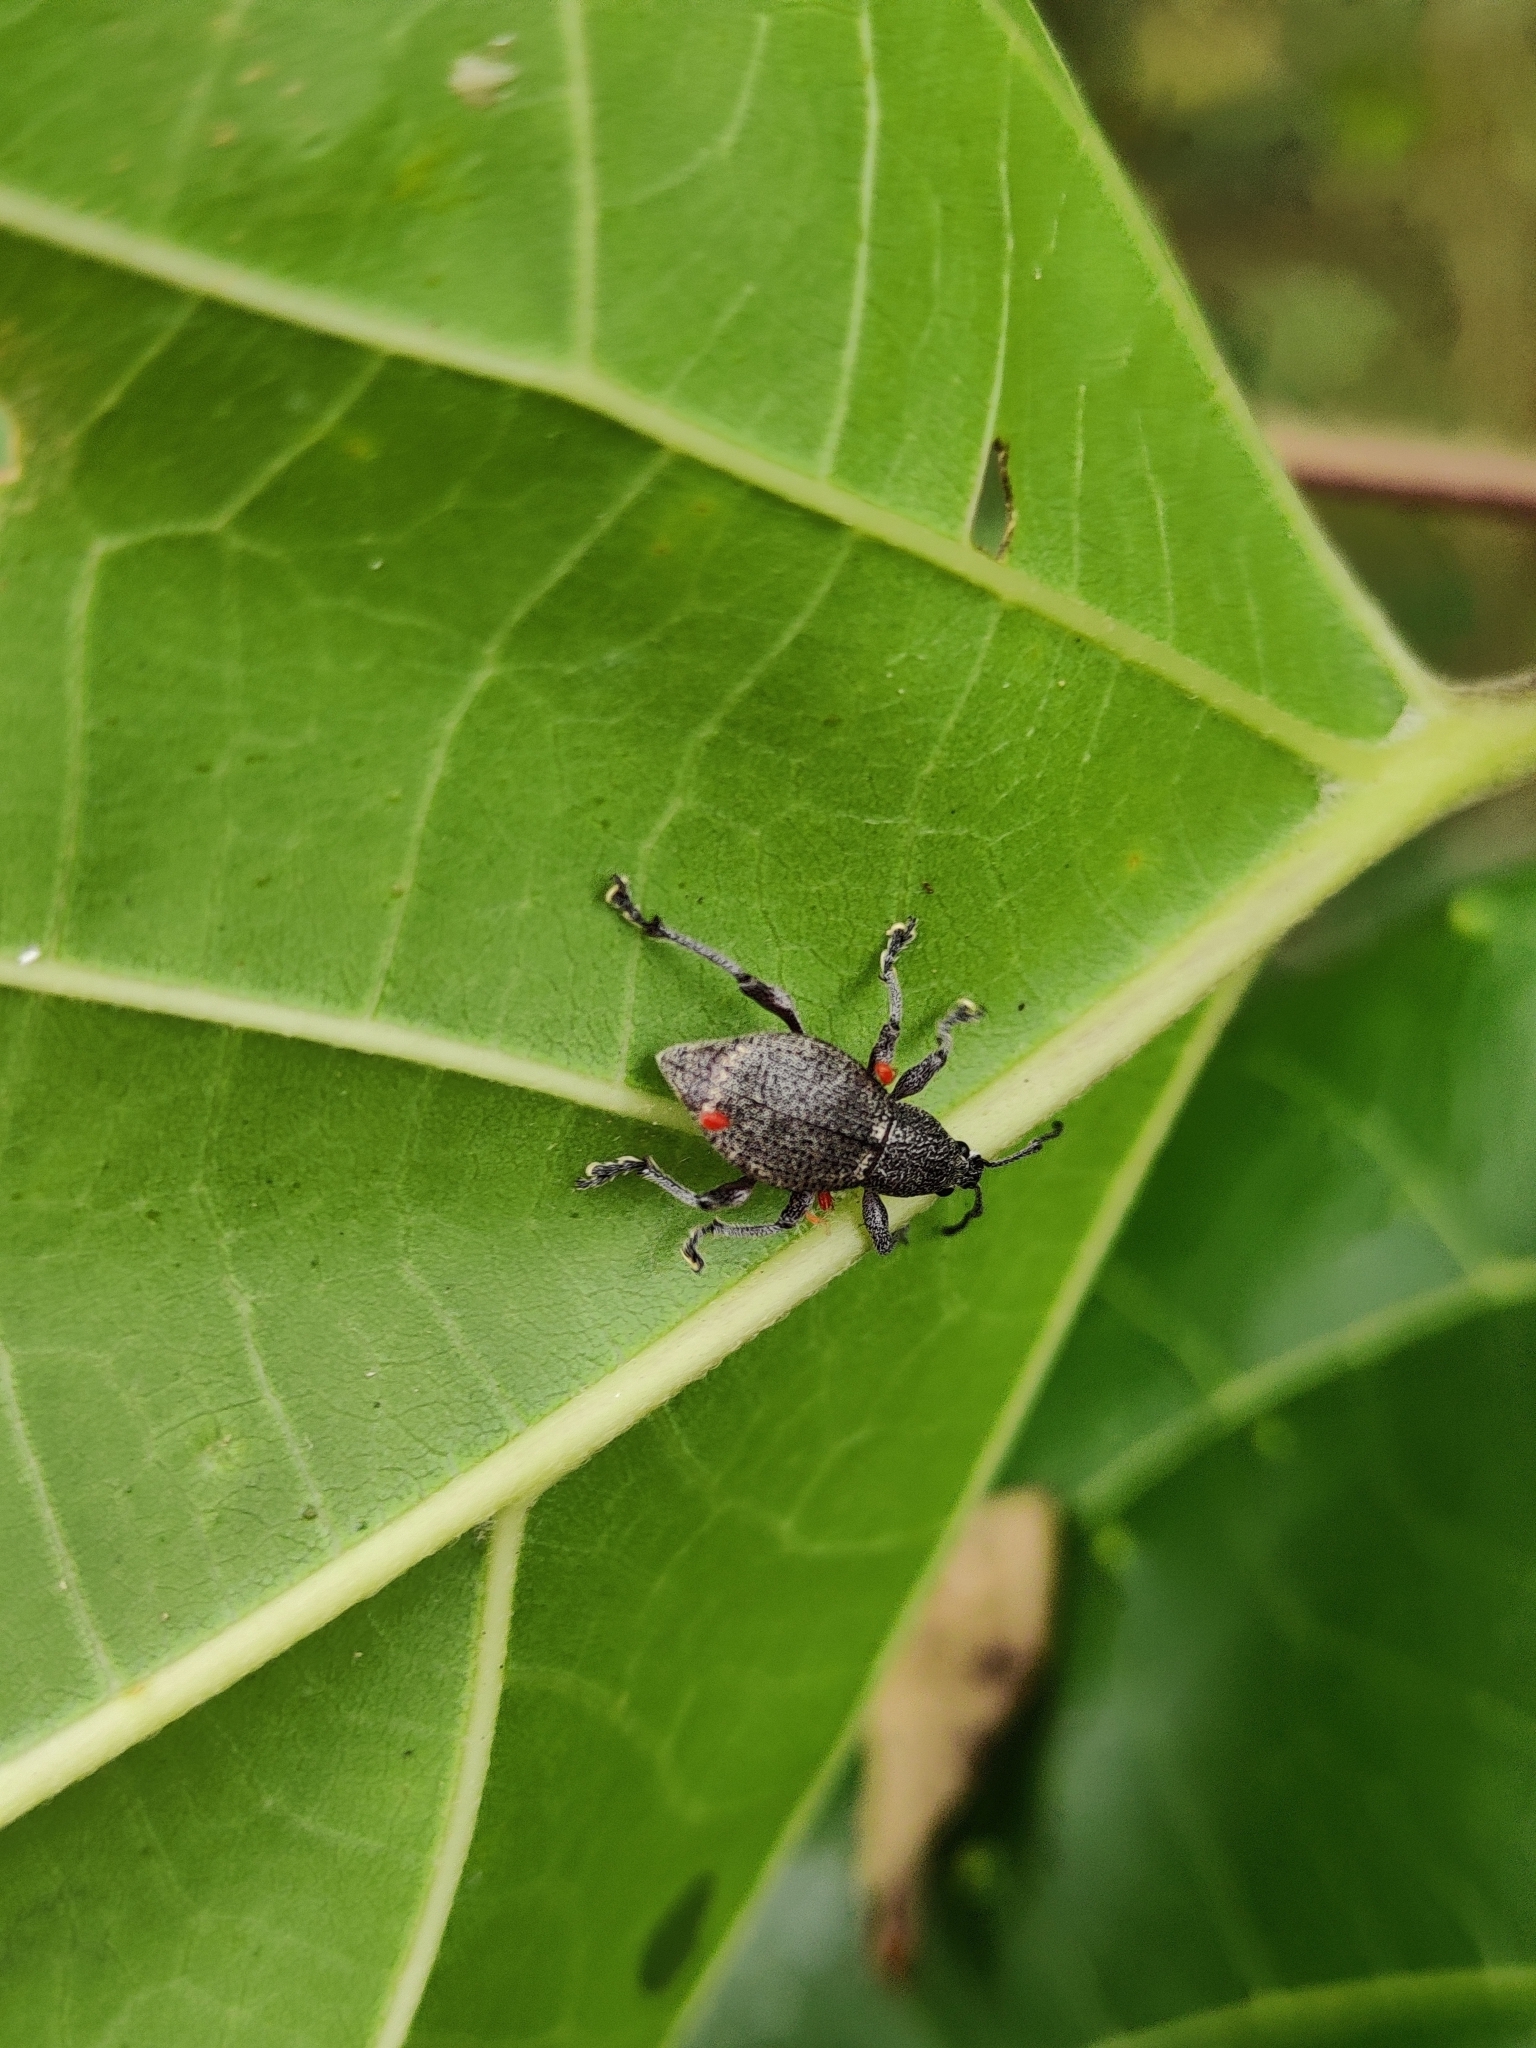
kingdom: Animalia
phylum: Arthropoda
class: Insecta
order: Coleoptera
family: Curculionidae
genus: Piezonotus
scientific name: Piezonotus humeralis
